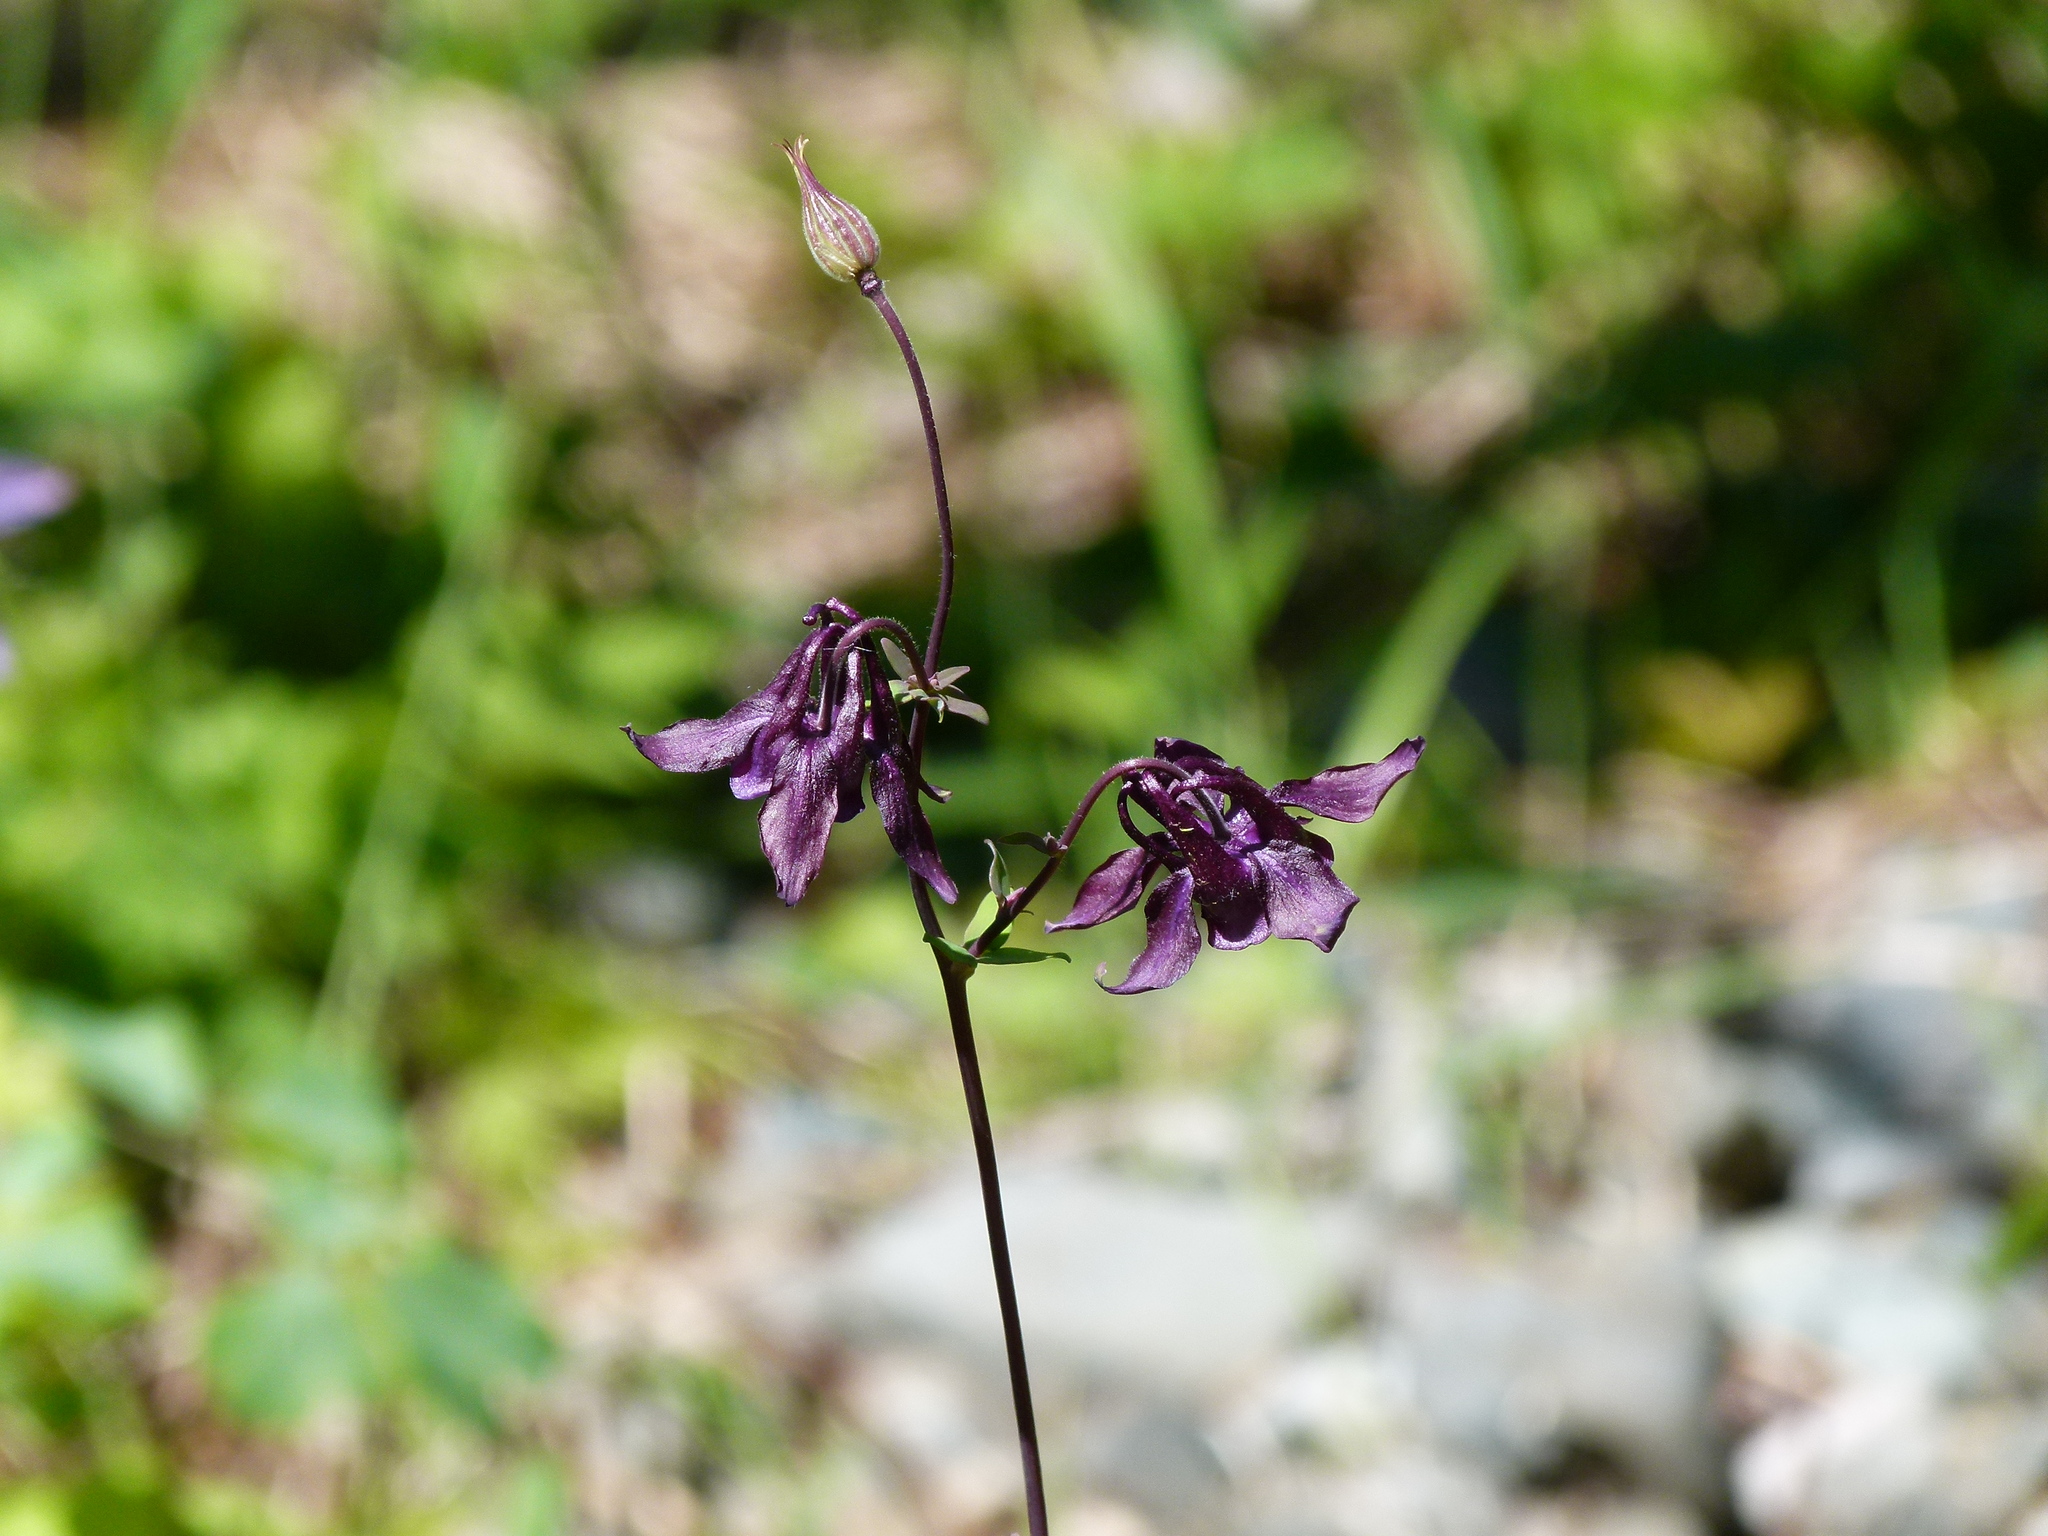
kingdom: Plantae
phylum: Tracheophyta
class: Magnoliopsida
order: Ranunculales
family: Ranunculaceae
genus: Aquilegia
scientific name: Aquilegia vulgaris
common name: Columbine
